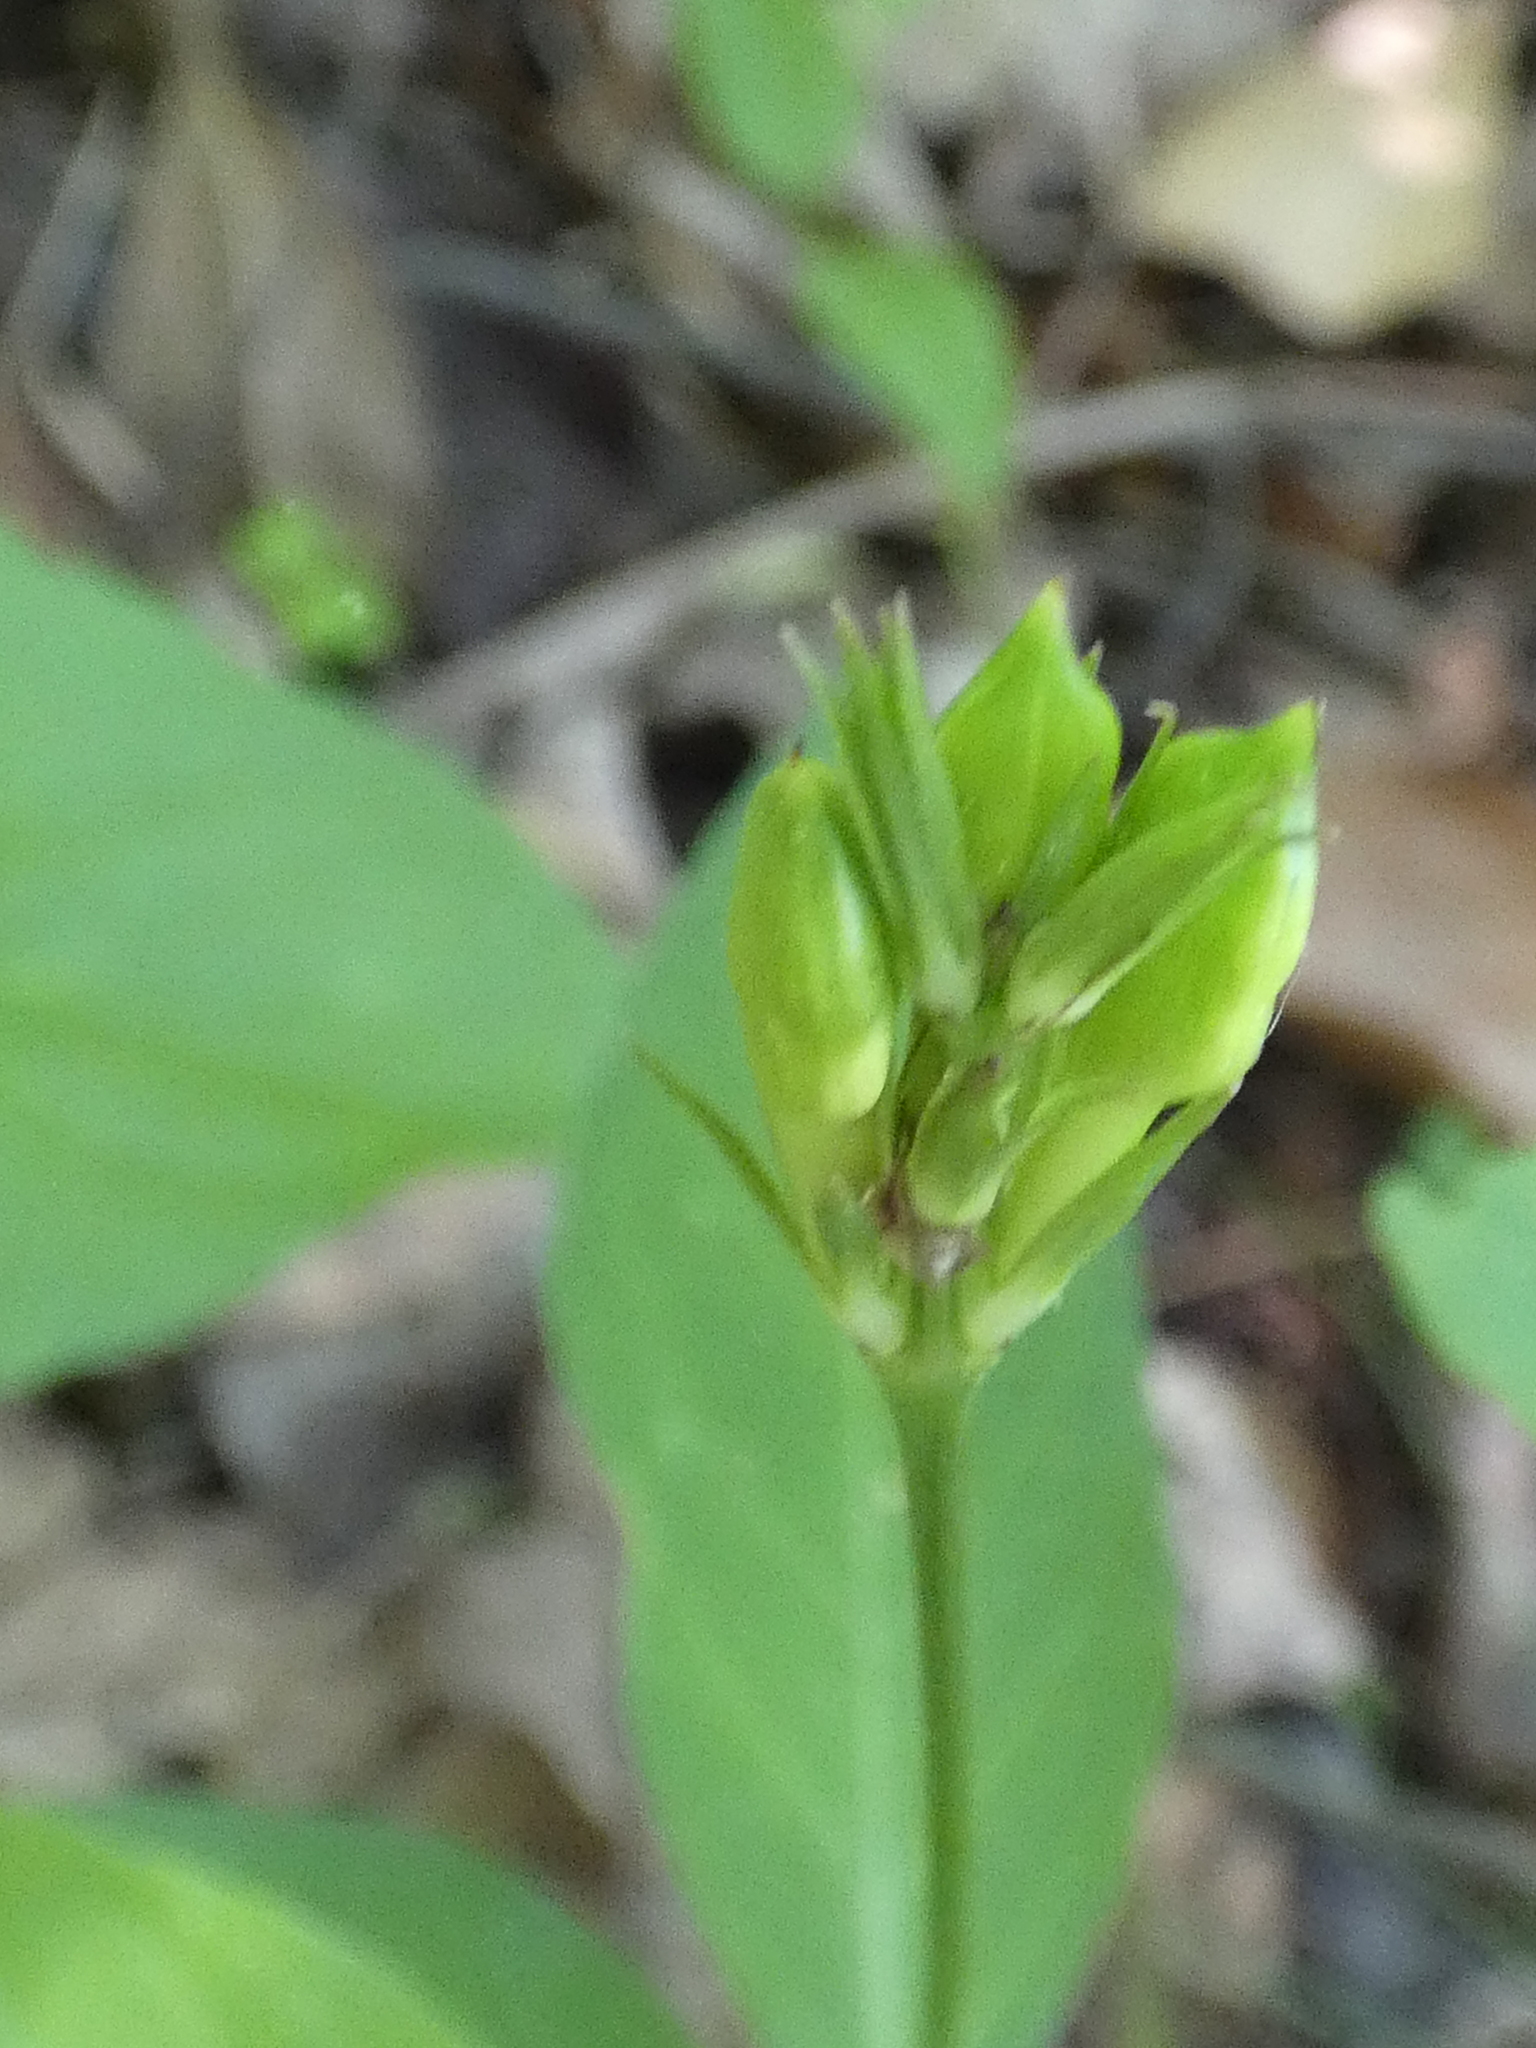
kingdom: Plantae
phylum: Tracheophyta
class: Magnoliopsida
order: Lamiales
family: Acanthaceae
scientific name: Acanthaceae
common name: Acanthaceae
